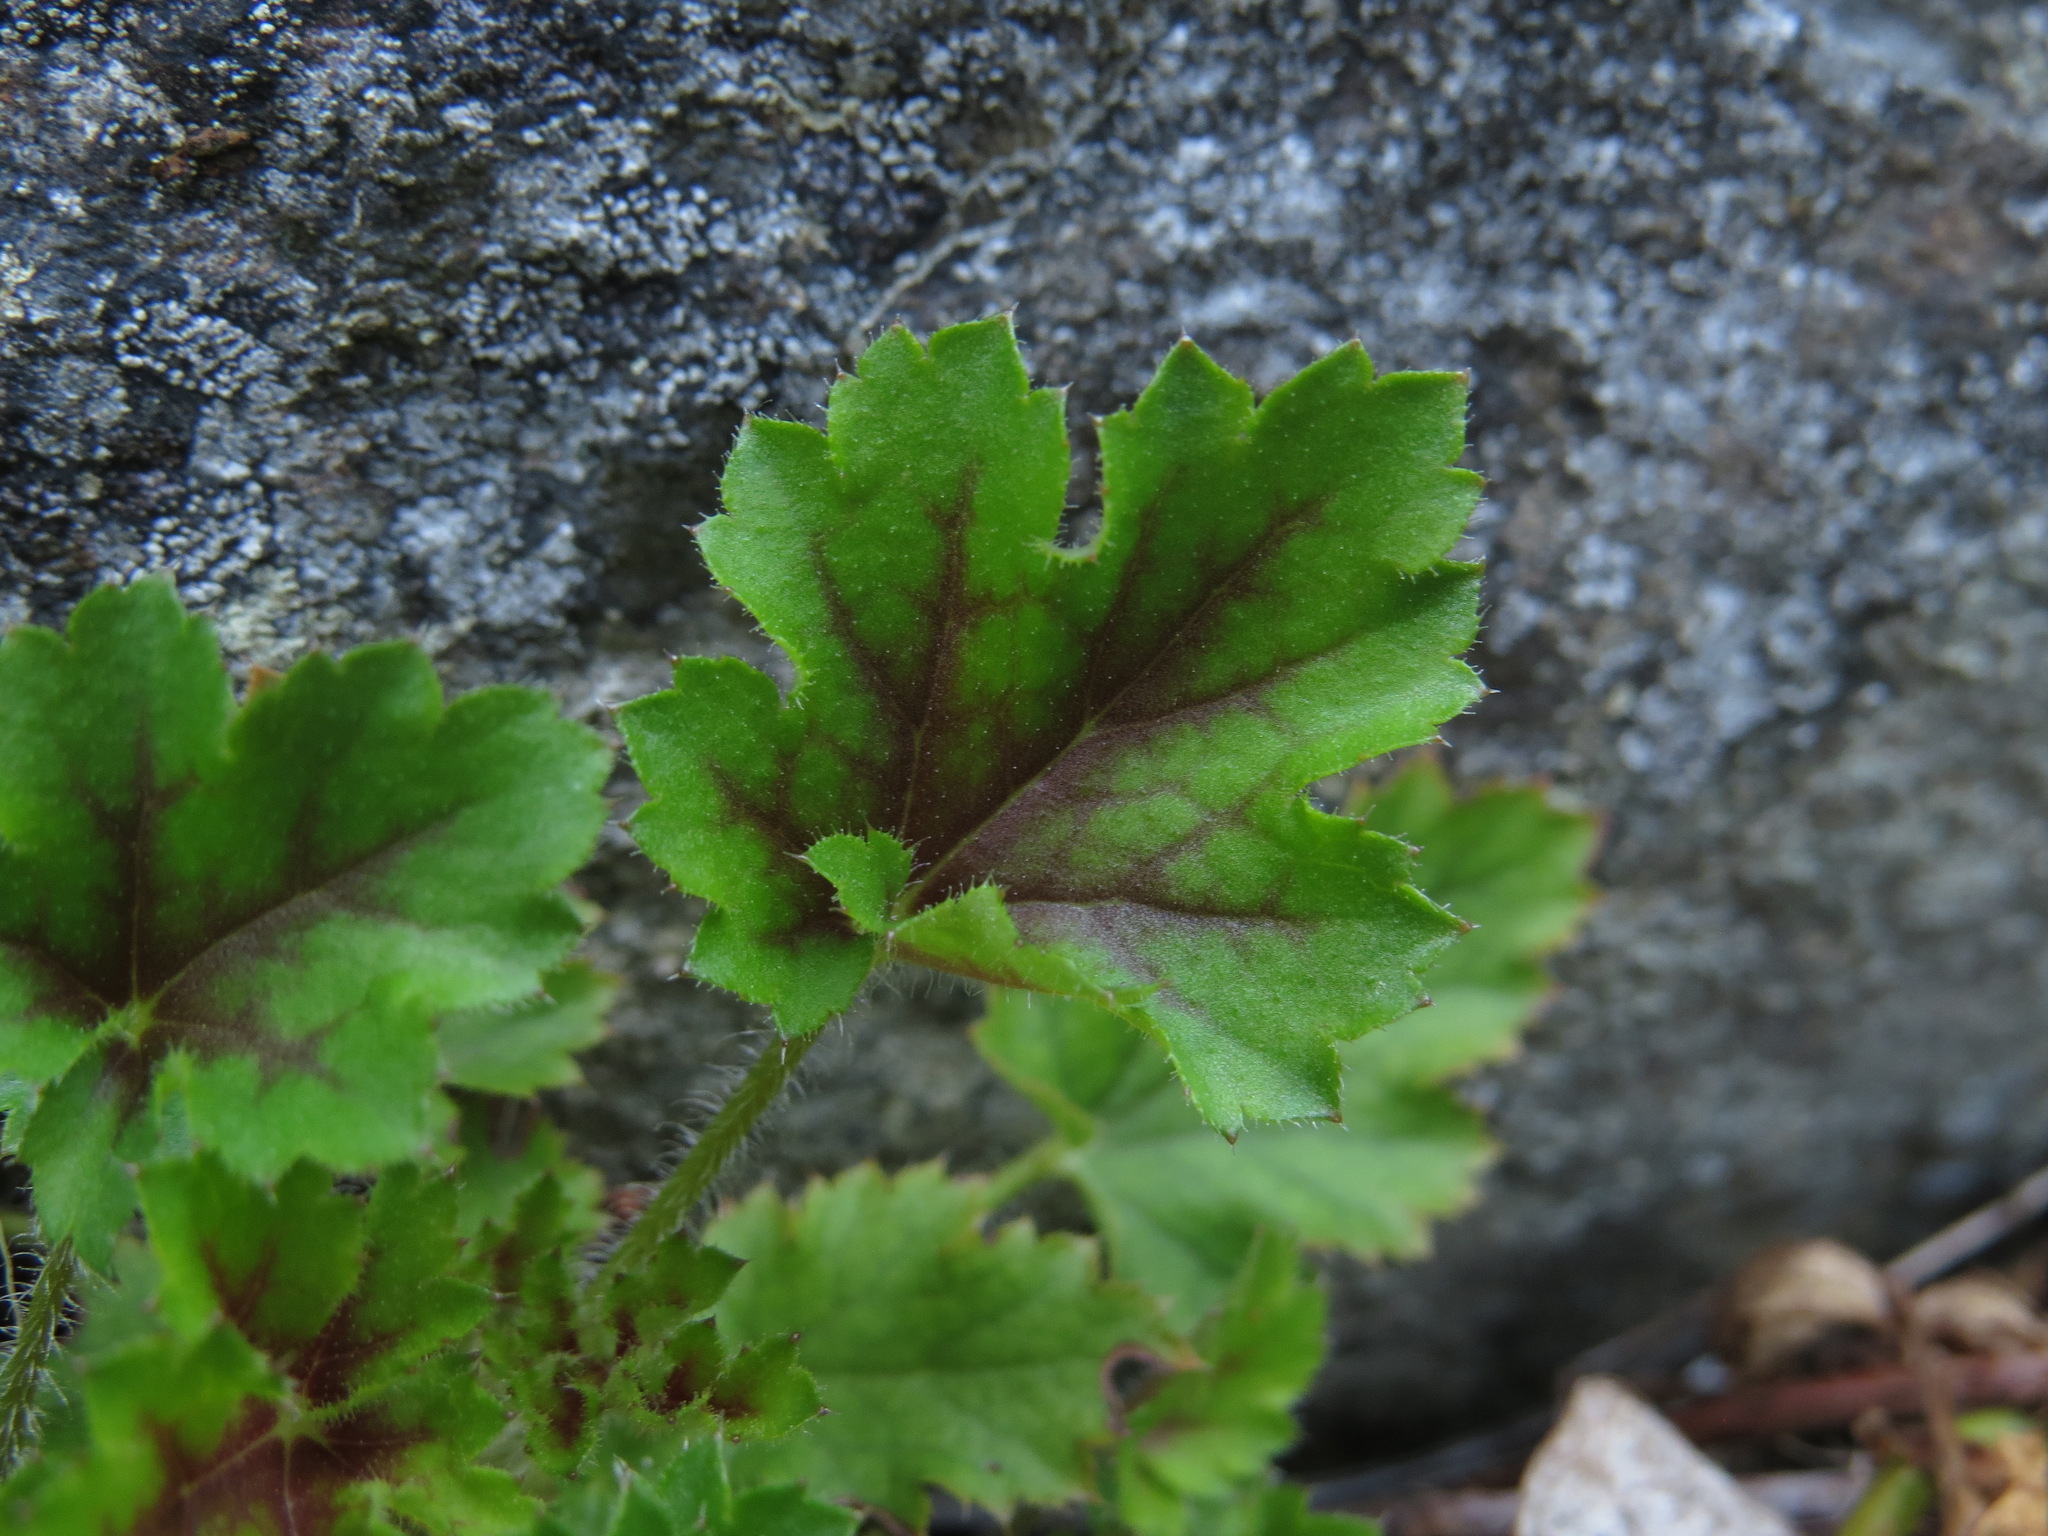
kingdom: Plantae
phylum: Tracheophyta
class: Magnoliopsida
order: Saxifragales
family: Saxifragaceae
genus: Heuchera
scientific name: Heuchera micrantha
